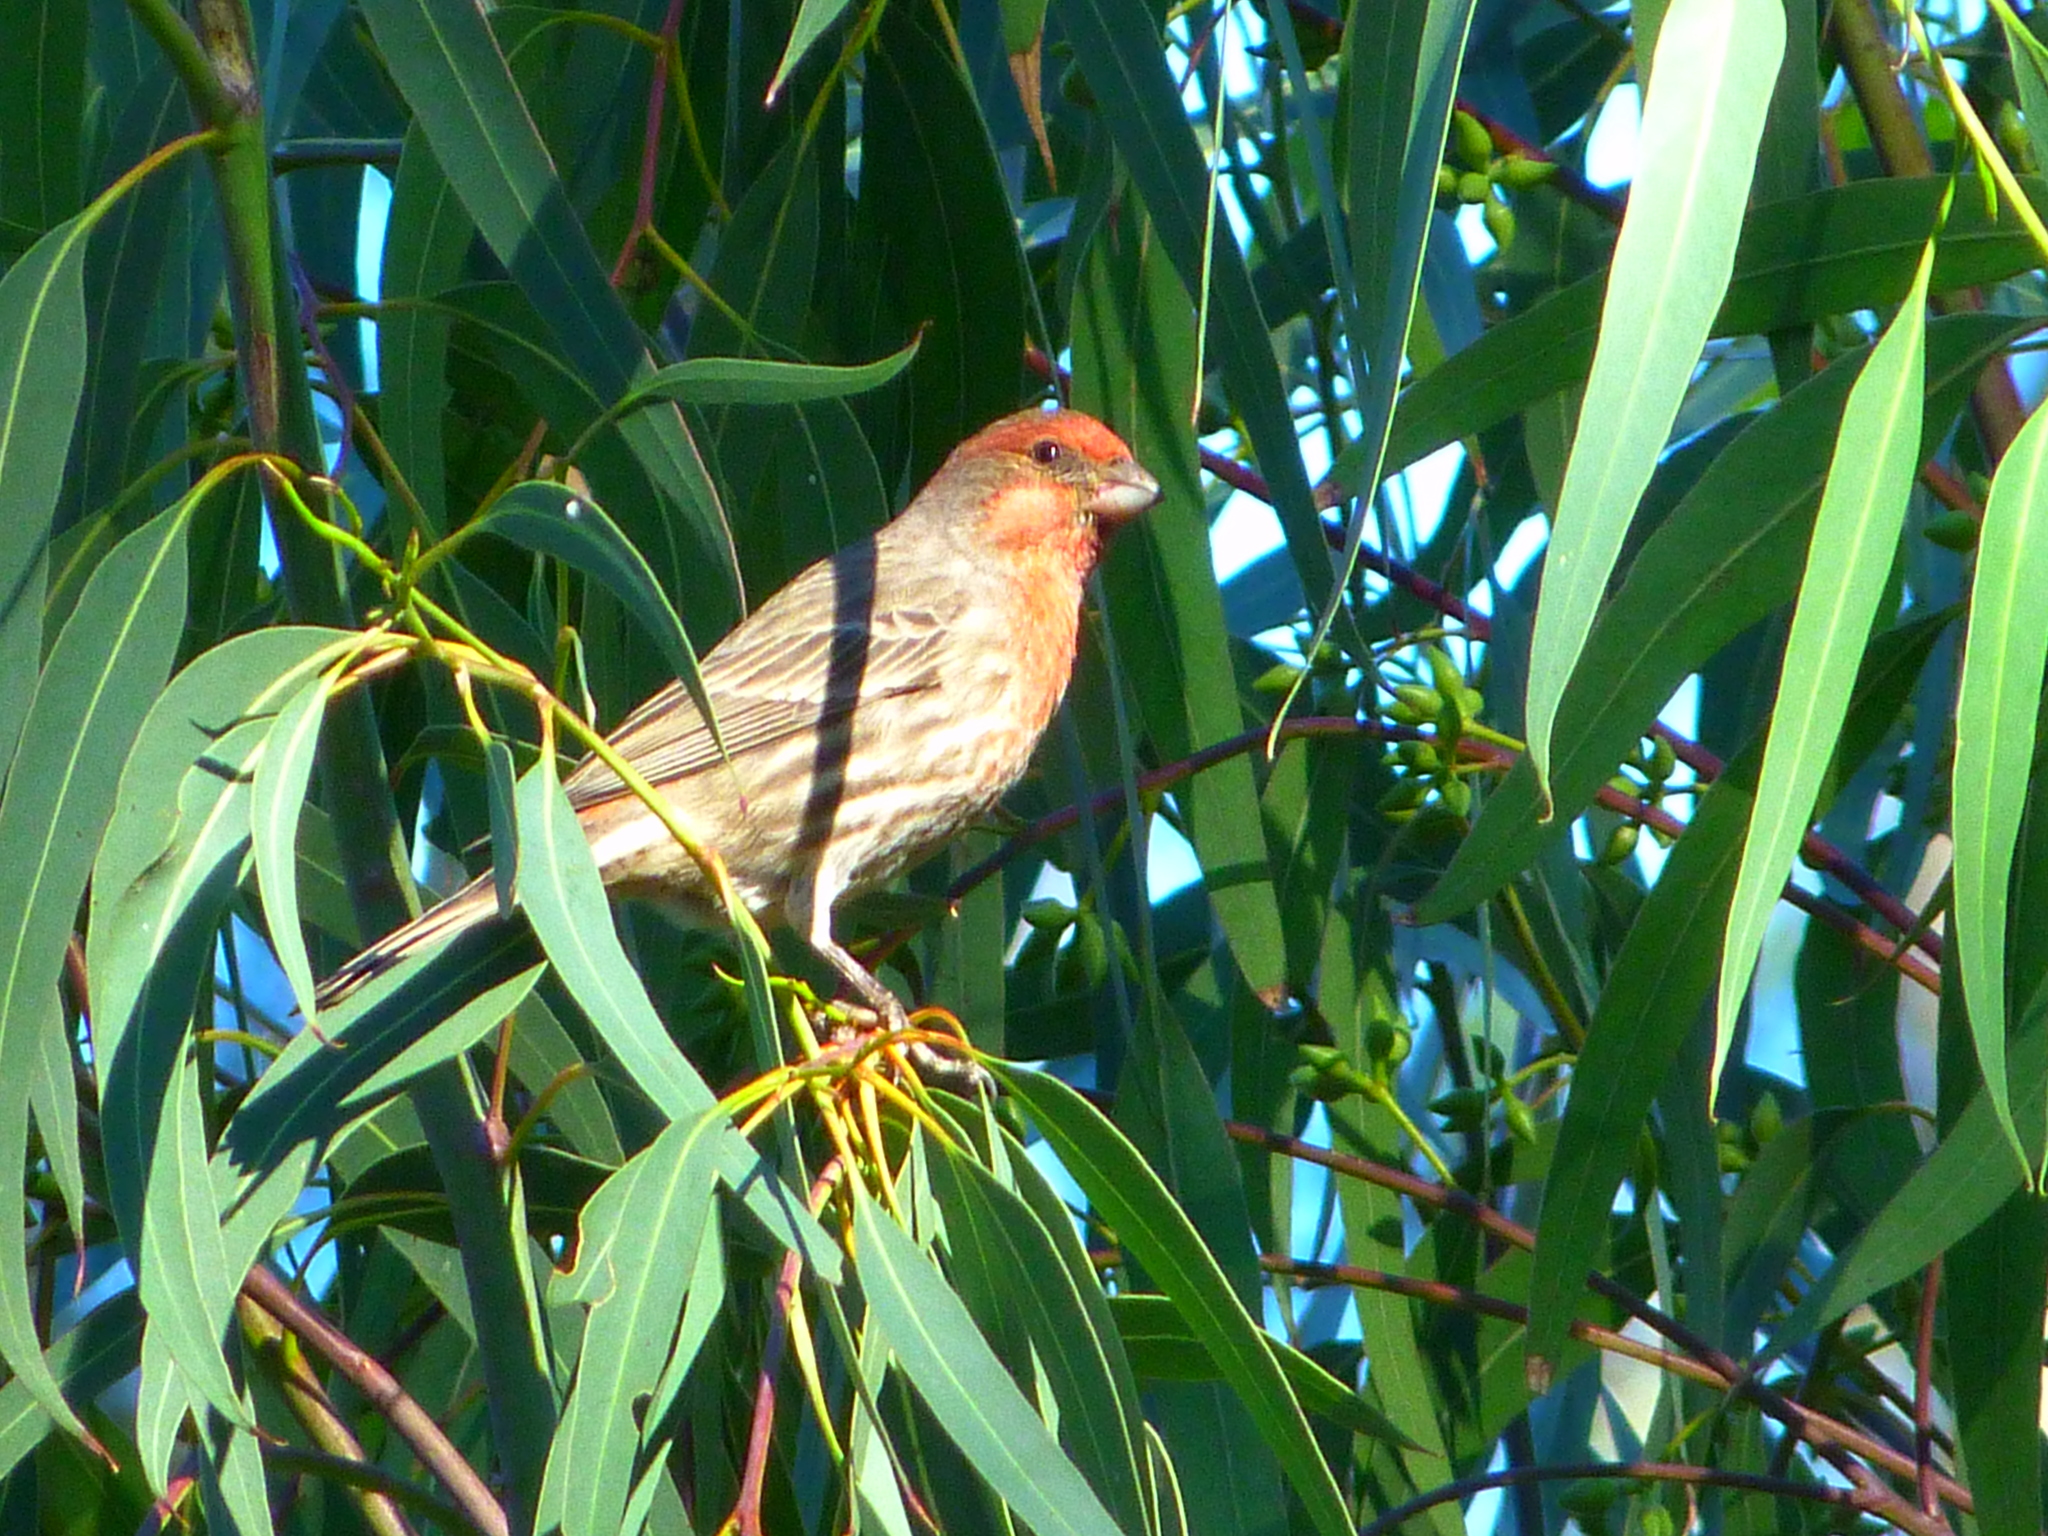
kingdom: Animalia
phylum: Chordata
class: Aves
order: Passeriformes
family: Fringillidae
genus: Haemorhous
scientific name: Haemorhous mexicanus
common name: House finch
